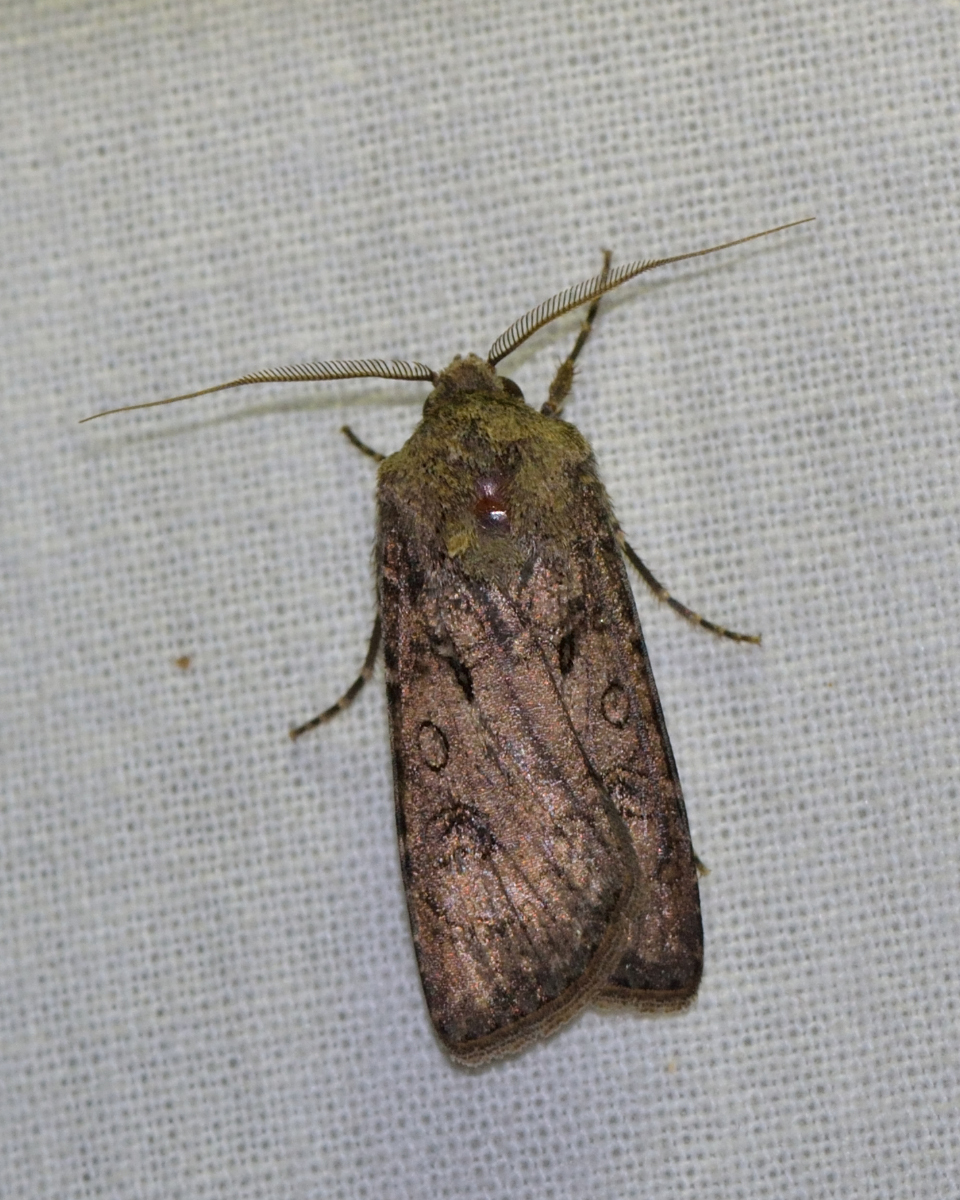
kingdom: Animalia
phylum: Arthropoda
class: Insecta
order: Lepidoptera
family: Noctuidae
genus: Agrotis
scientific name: Agrotis segetum
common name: Turnip moth
